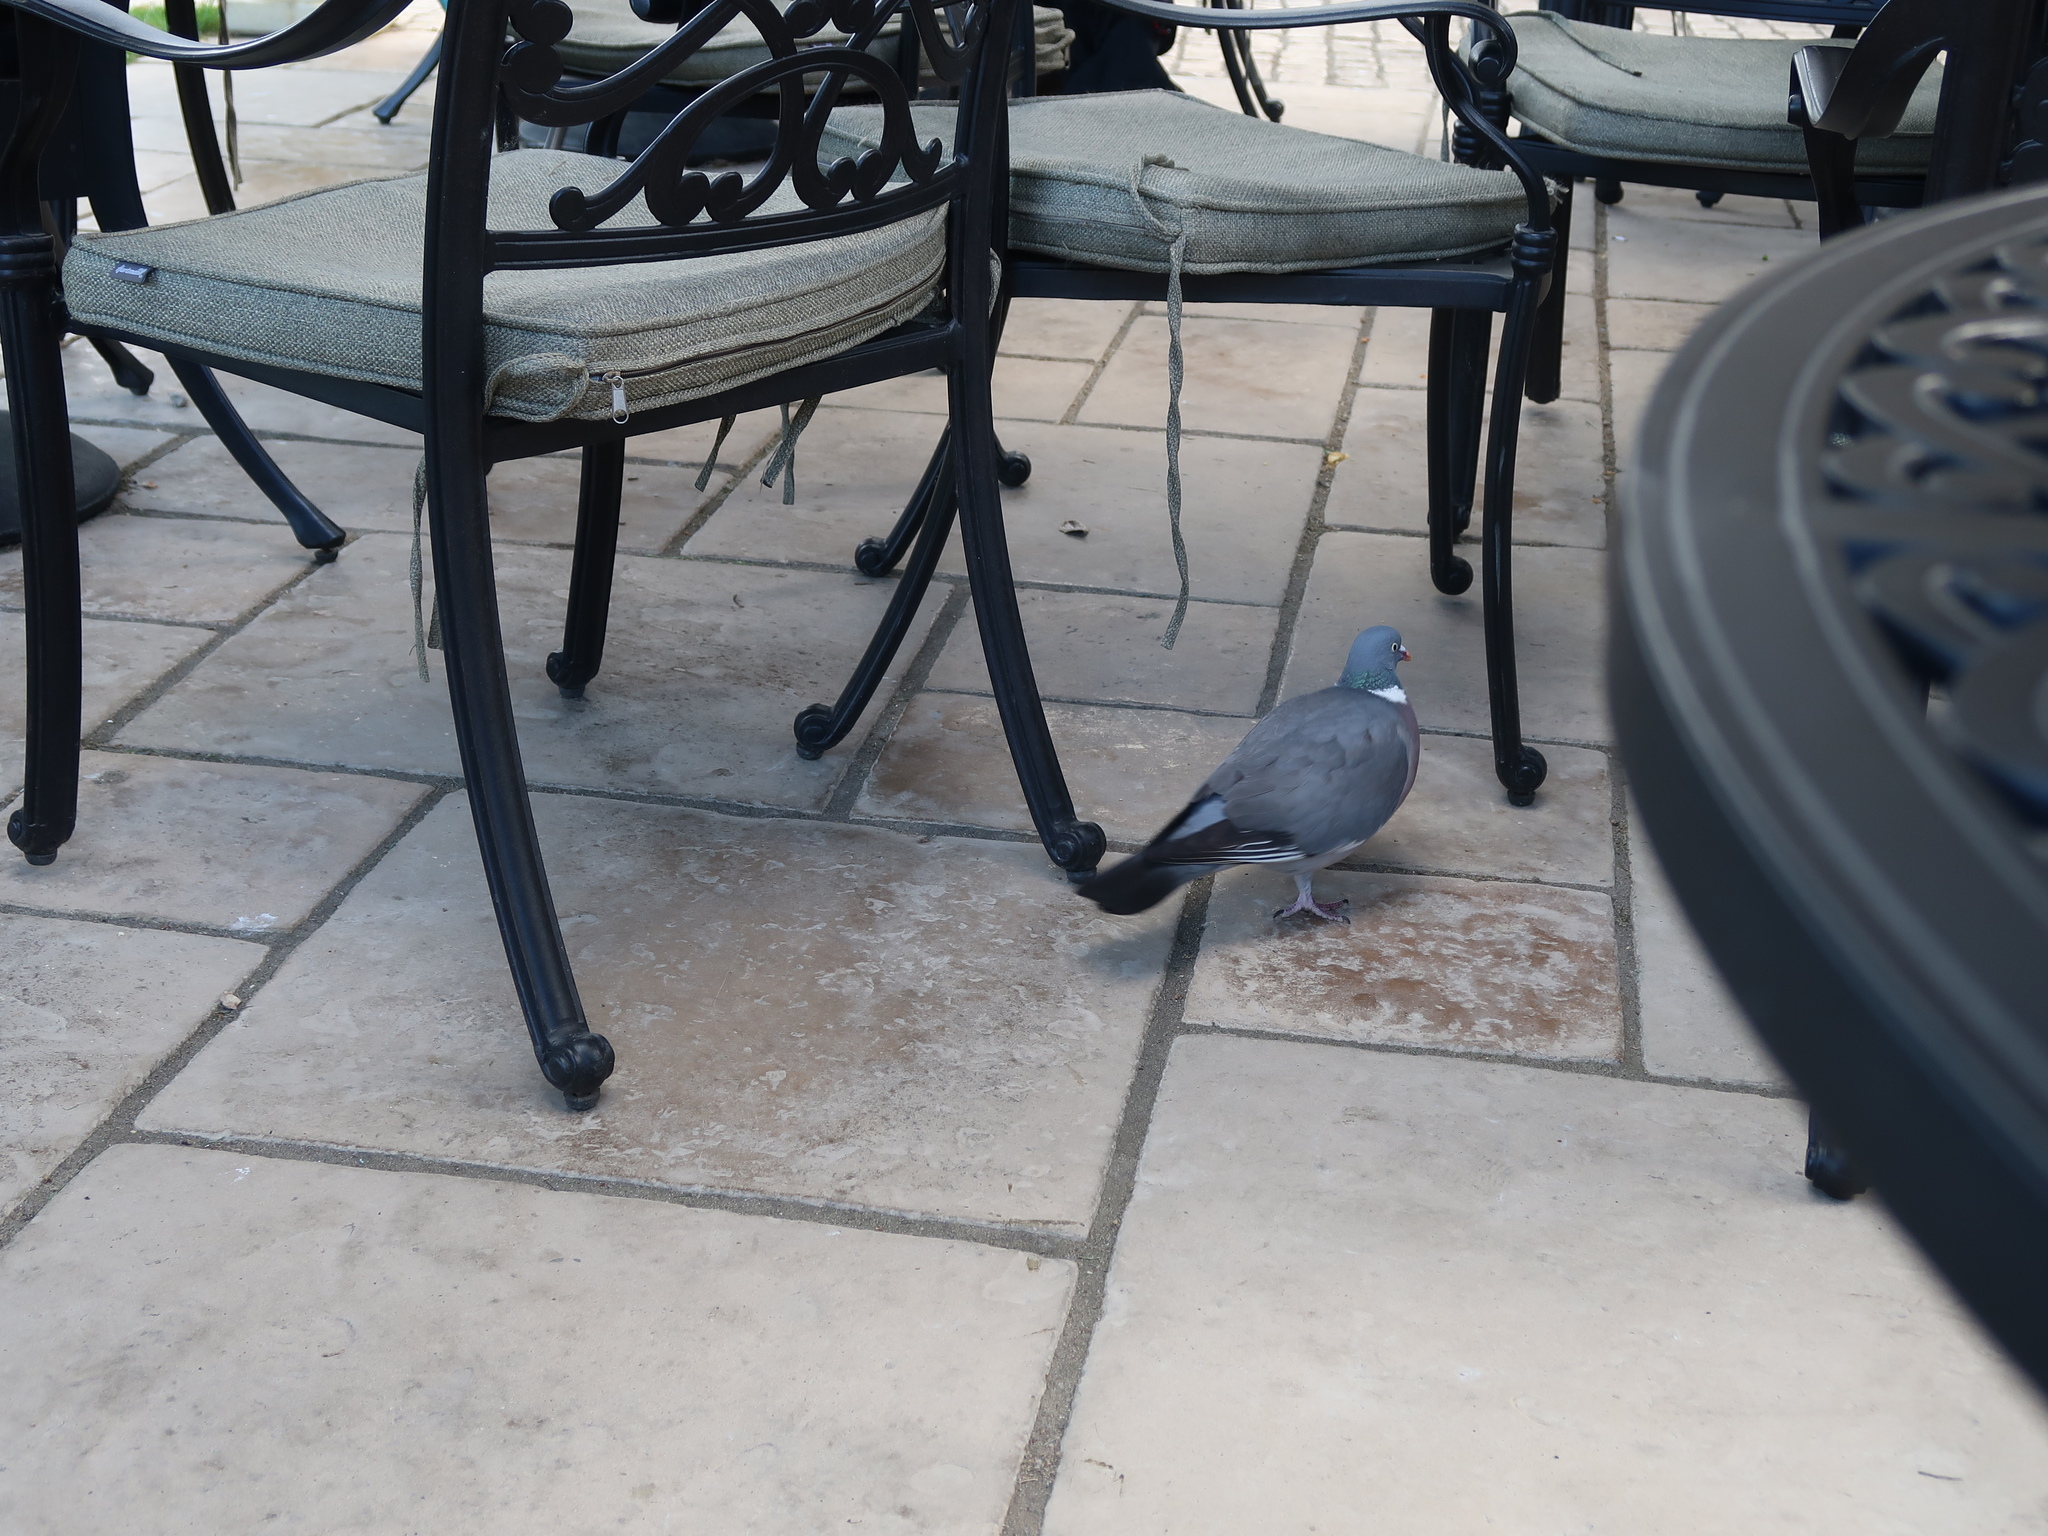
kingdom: Animalia
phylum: Chordata
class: Aves
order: Columbiformes
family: Columbidae
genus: Columba
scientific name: Columba palumbus
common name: Common wood pigeon
